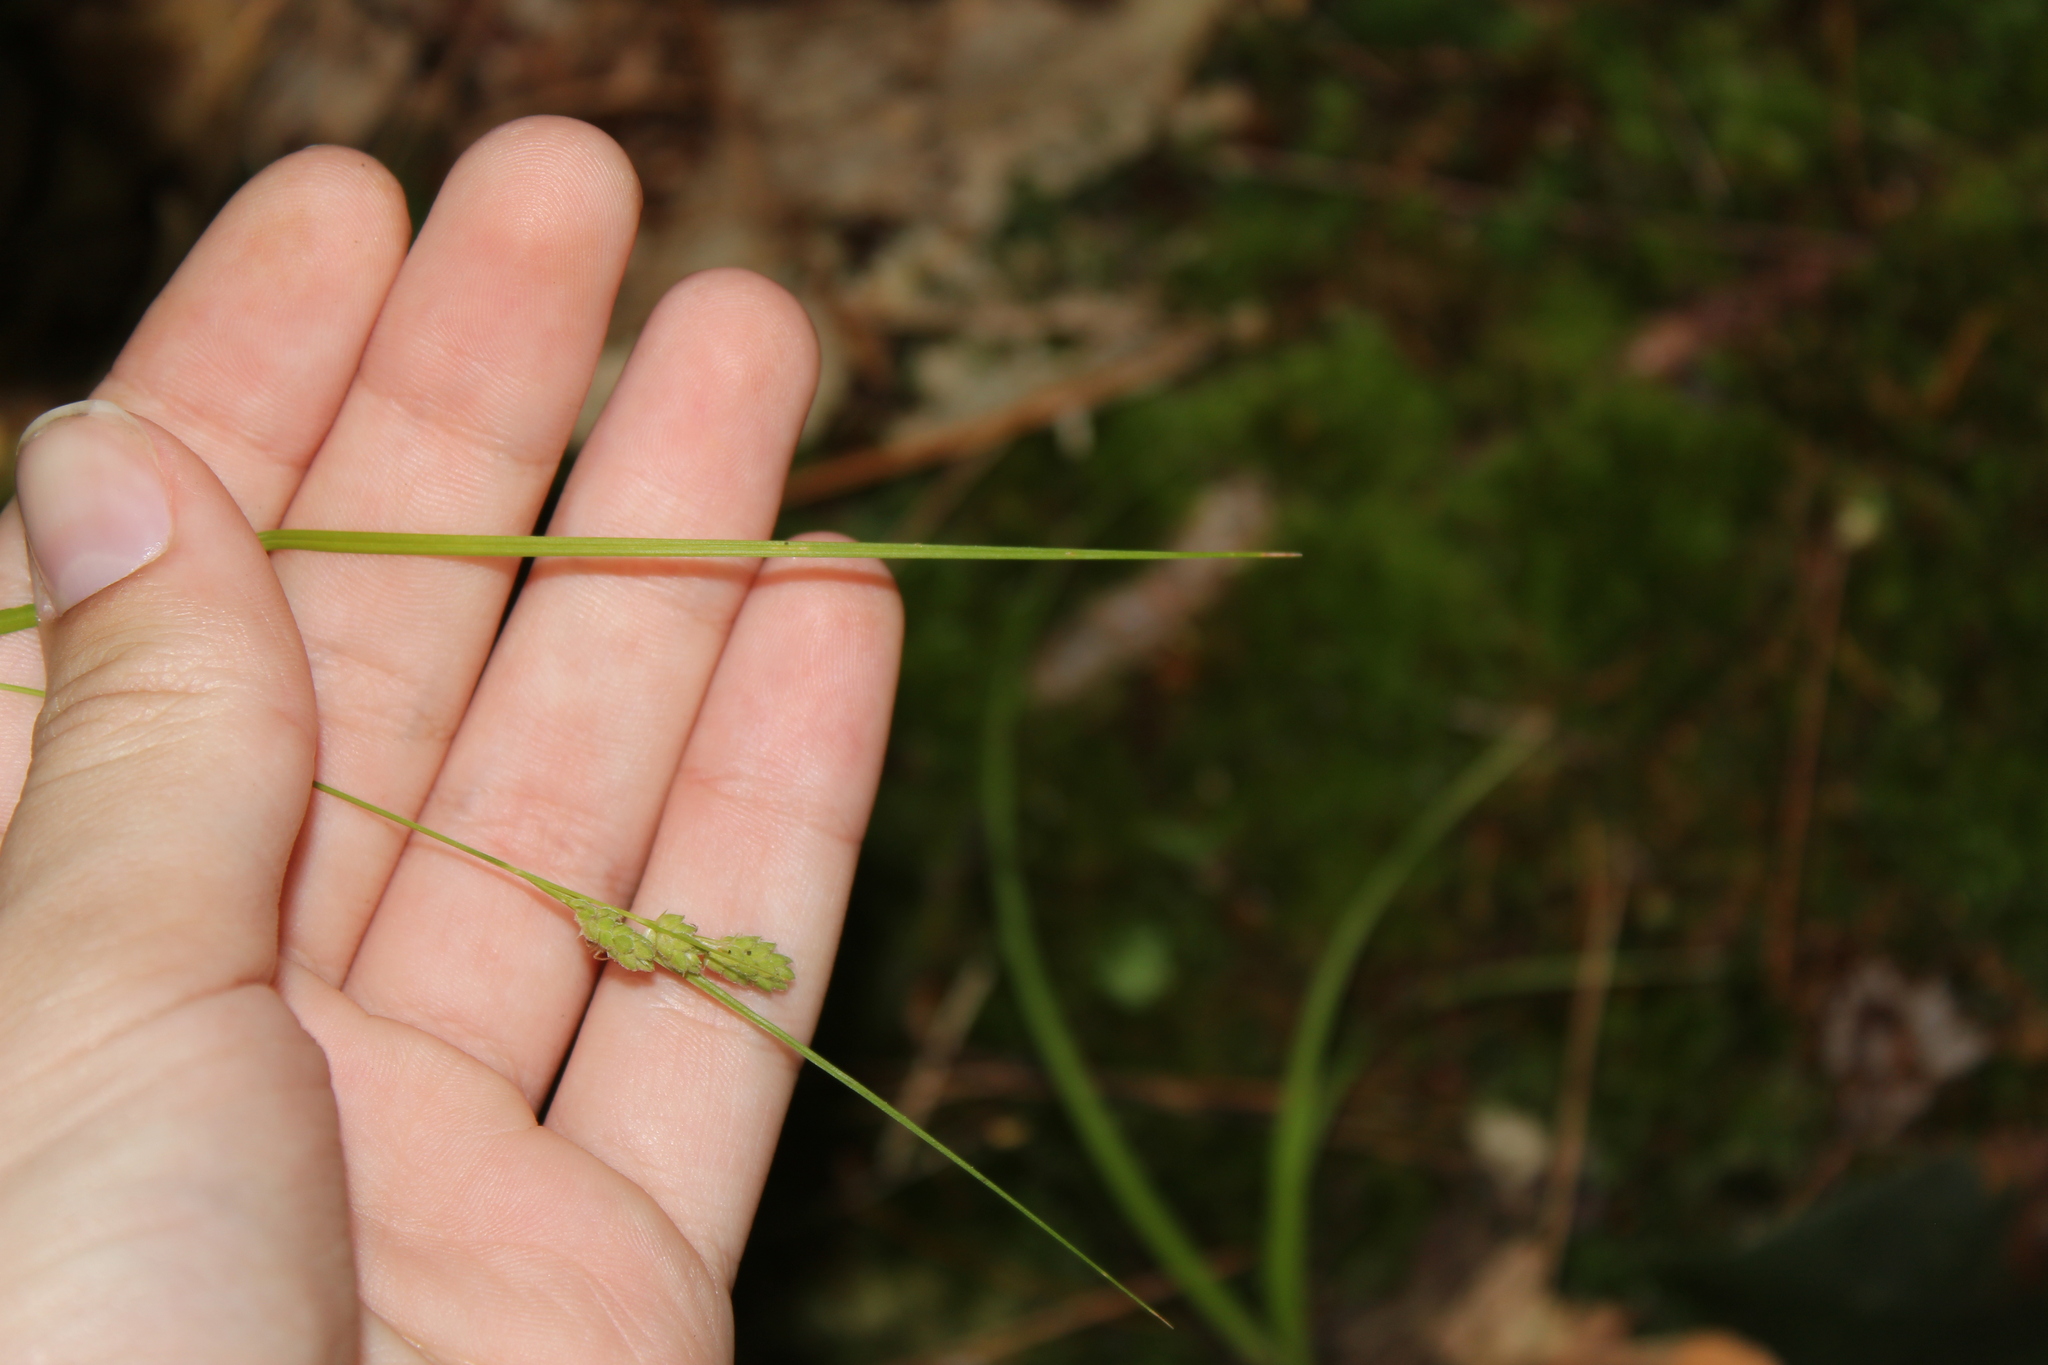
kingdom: Plantae
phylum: Tracheophyta
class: Liliopsida
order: Poales
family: Cyperaceae
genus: Carex
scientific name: Carex swanii
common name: Downy green sedge
